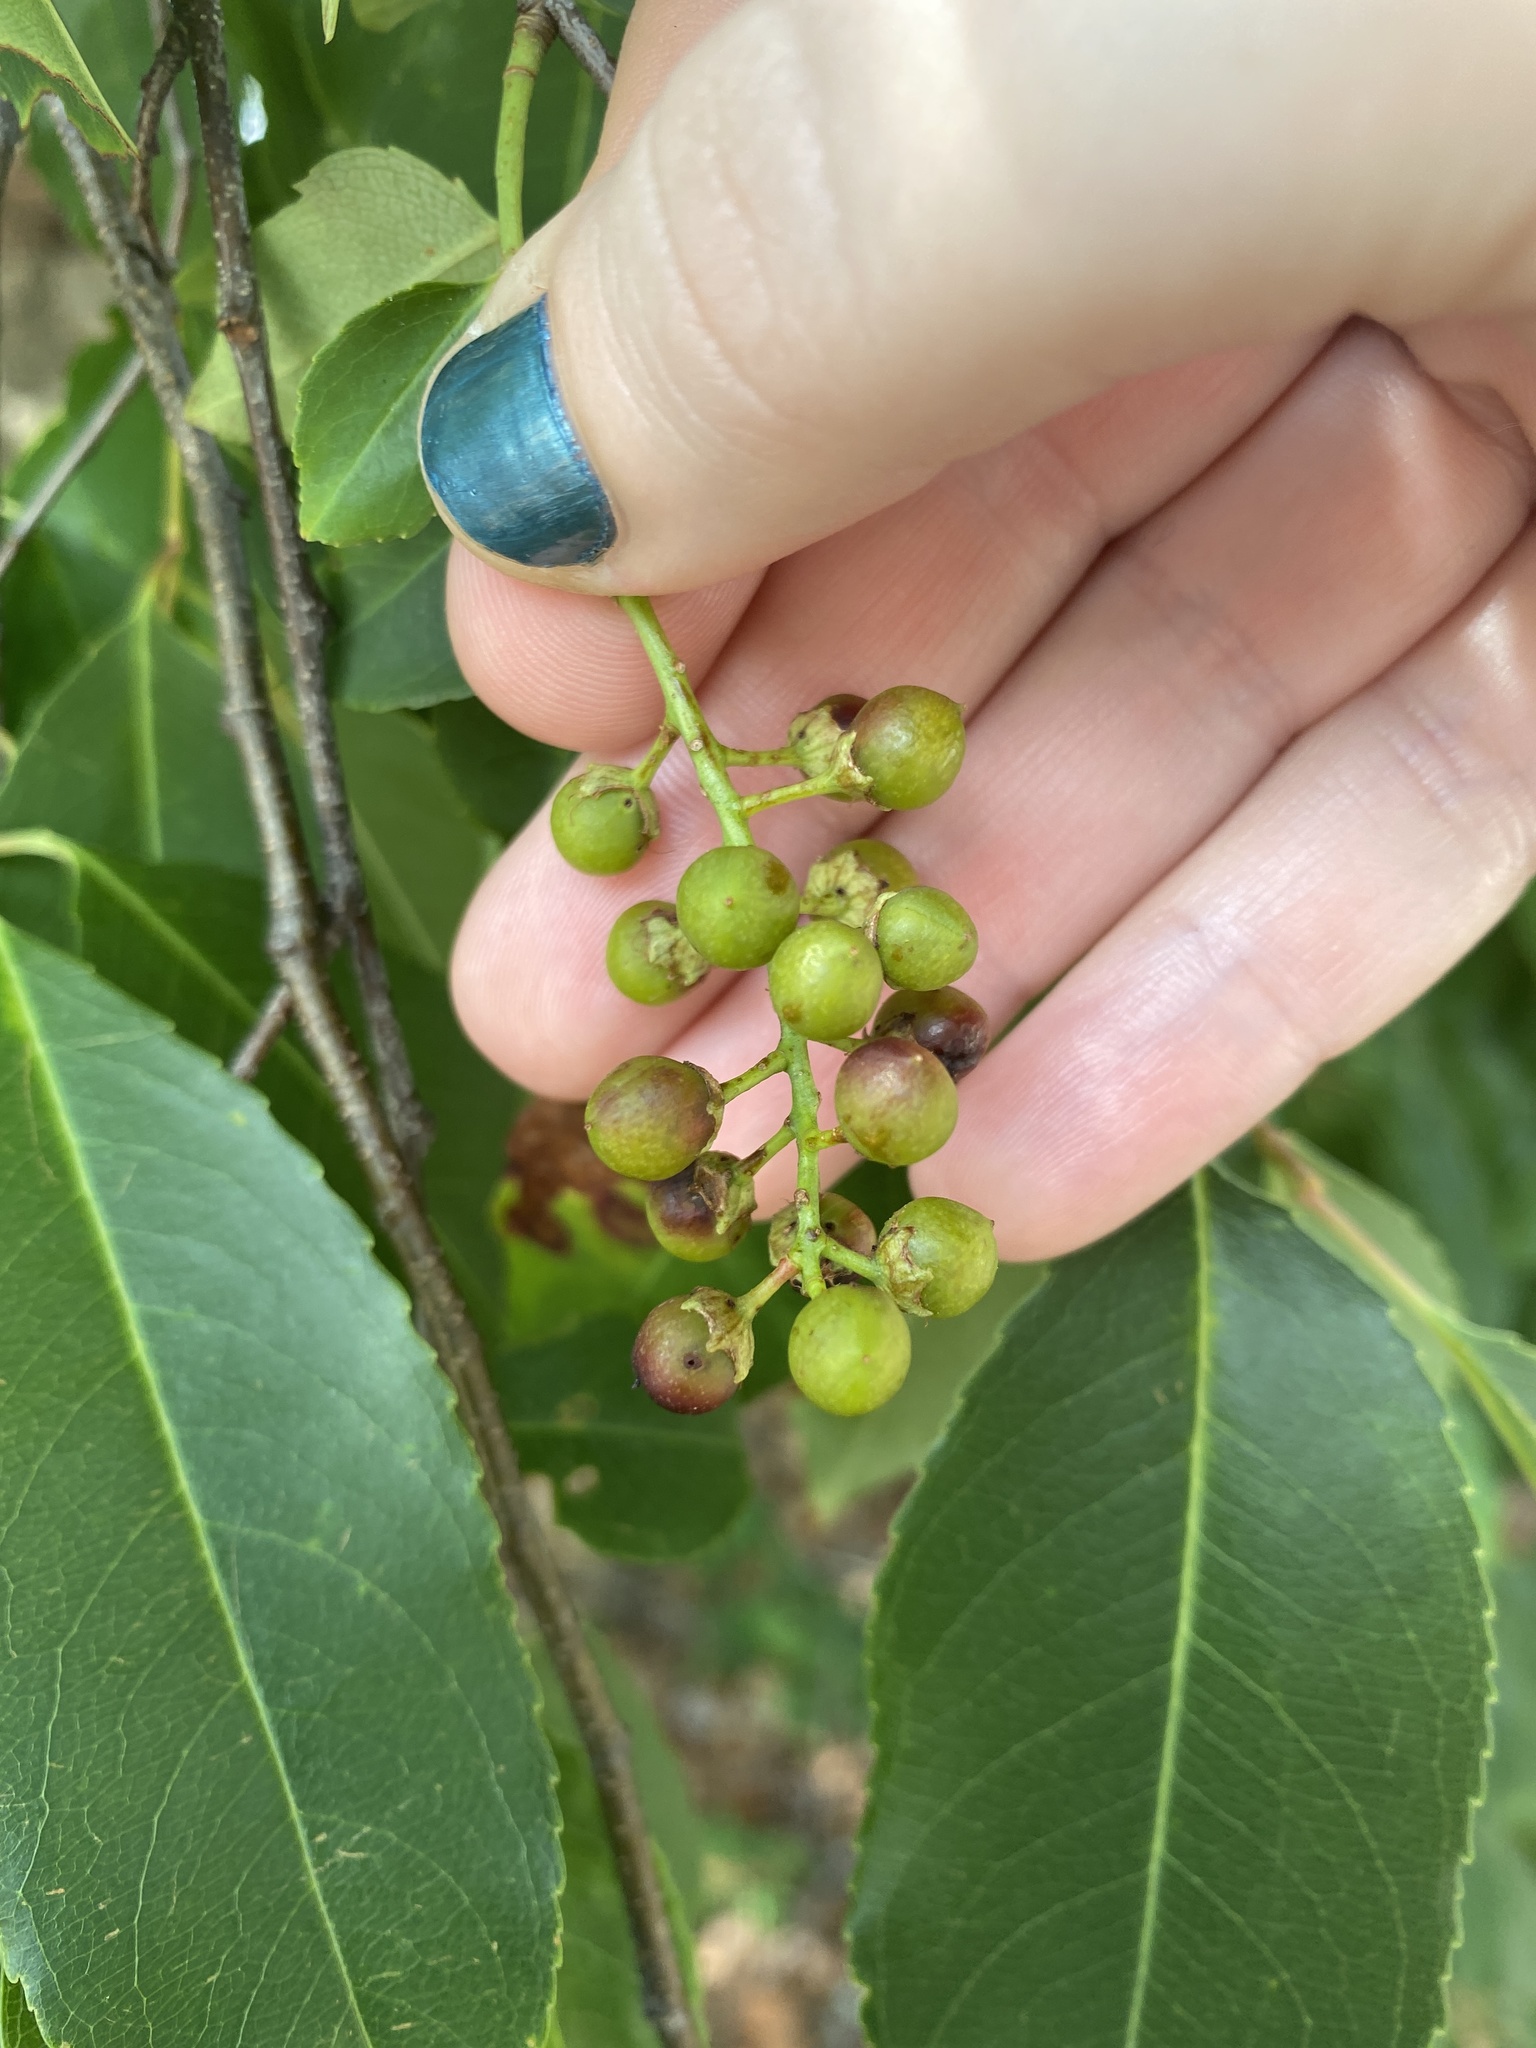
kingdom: Plantae
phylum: Tracheophyta
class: Magnoliopsida
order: Rosales
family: Rosaceae
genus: Prunus
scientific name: Prunus serotina
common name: Black cherry
